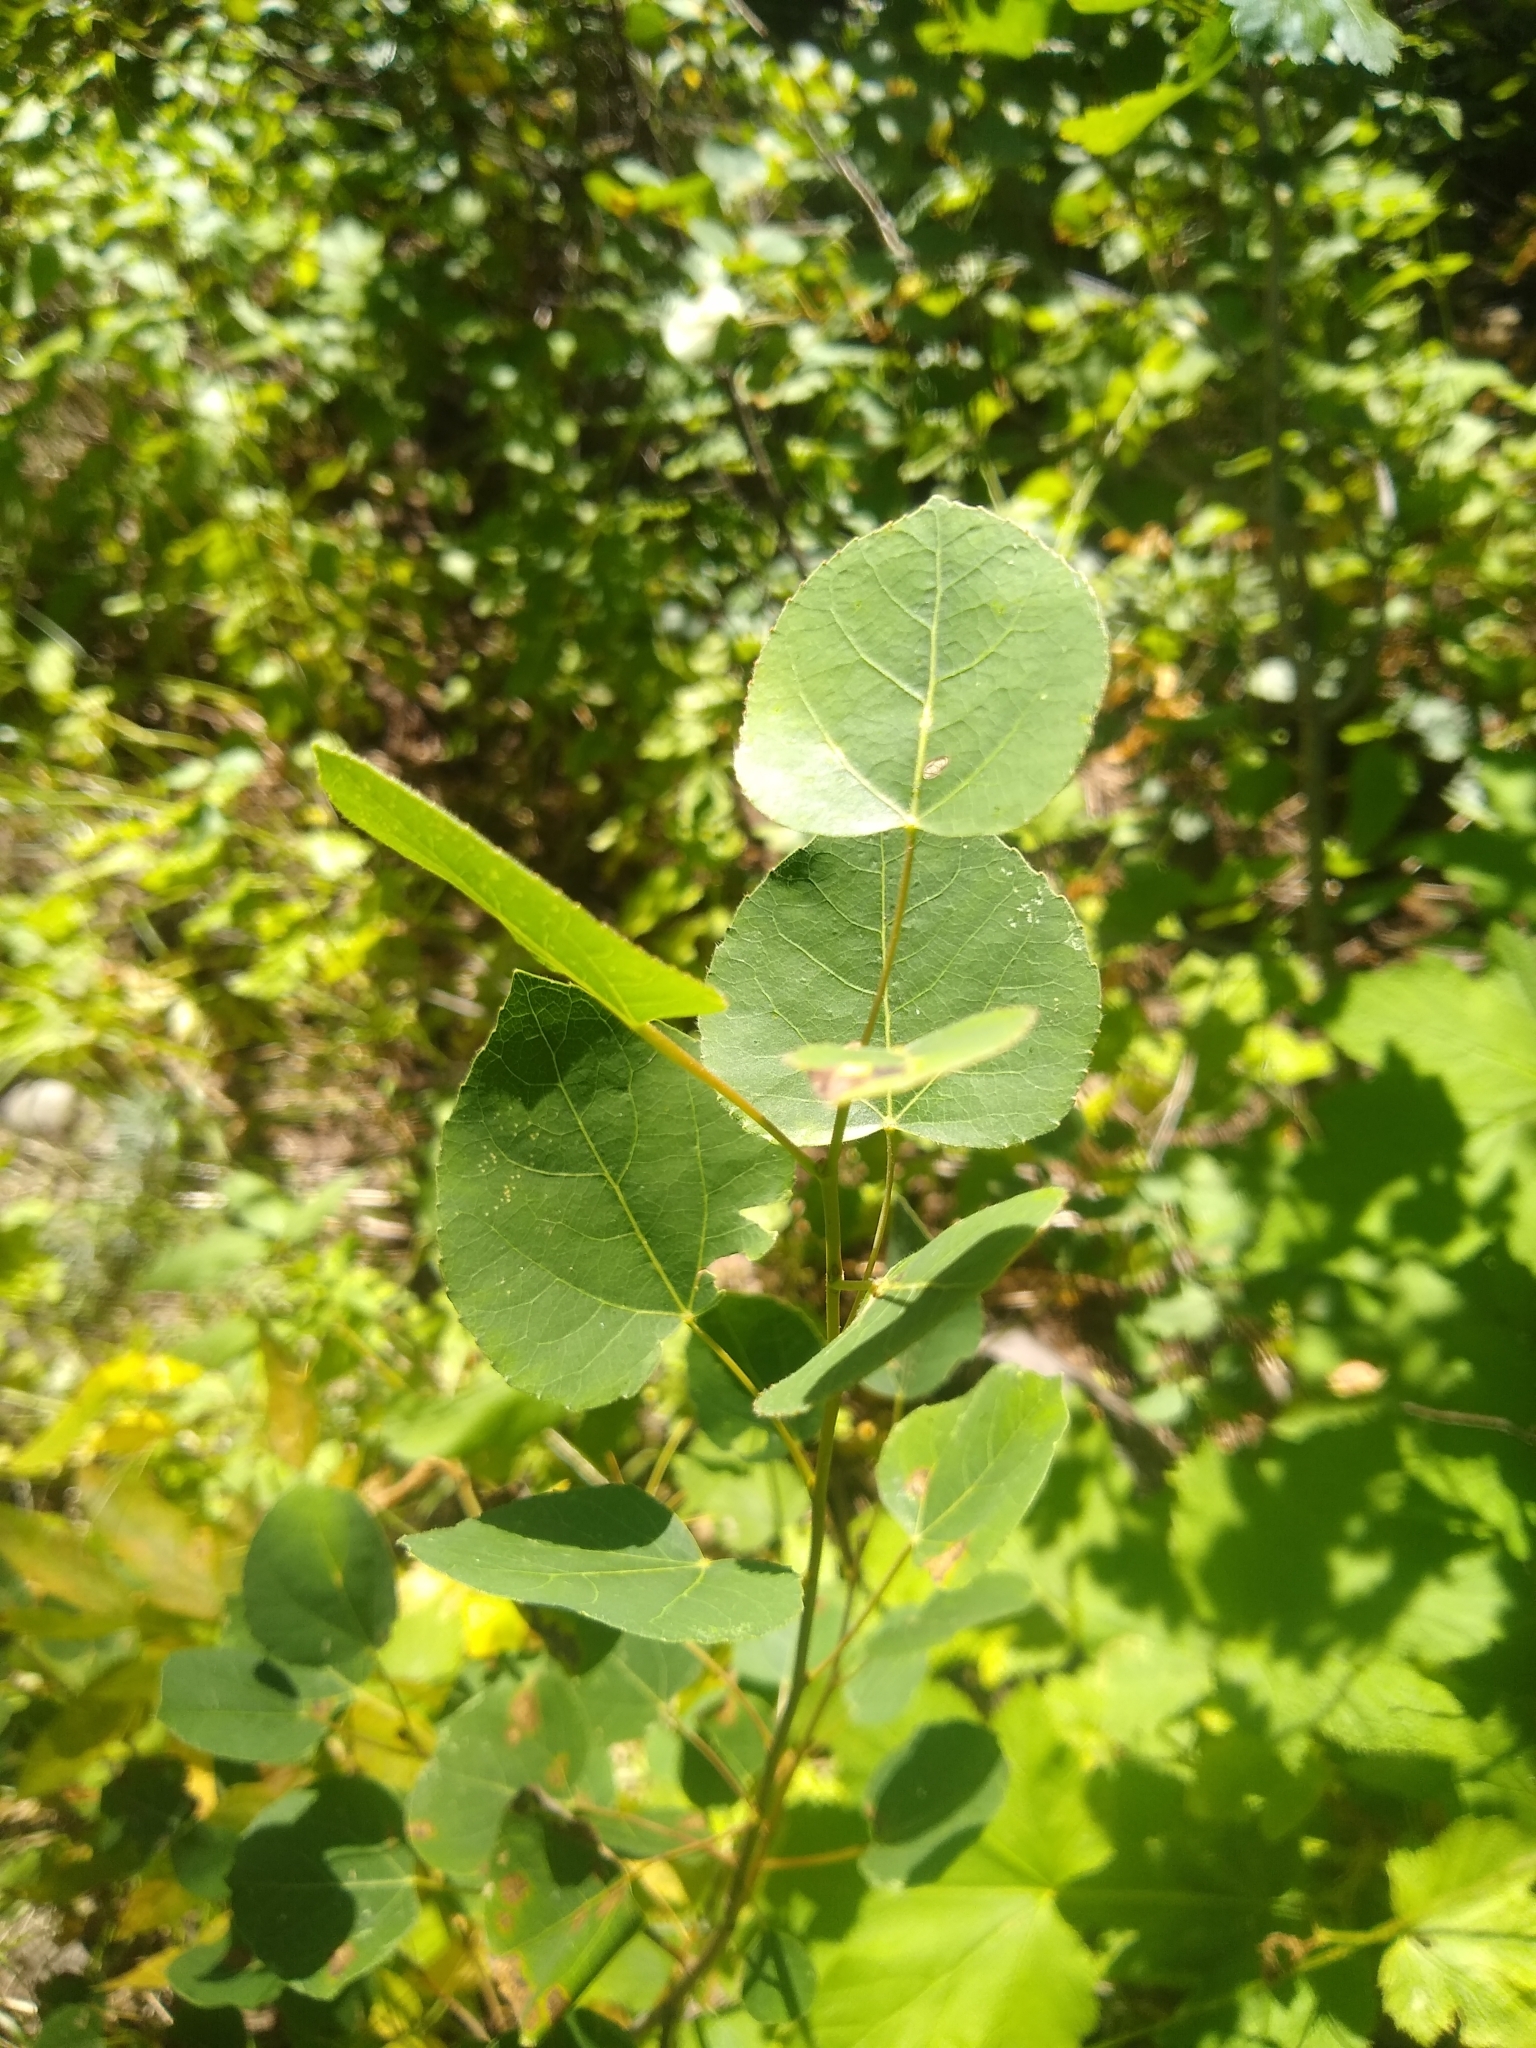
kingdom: Plantae
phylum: Tracheophyta
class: Magnoliopsida
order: Malpighiales
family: Salicaceae
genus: Populus
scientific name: Populus tremuloides
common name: Quaking aspen
